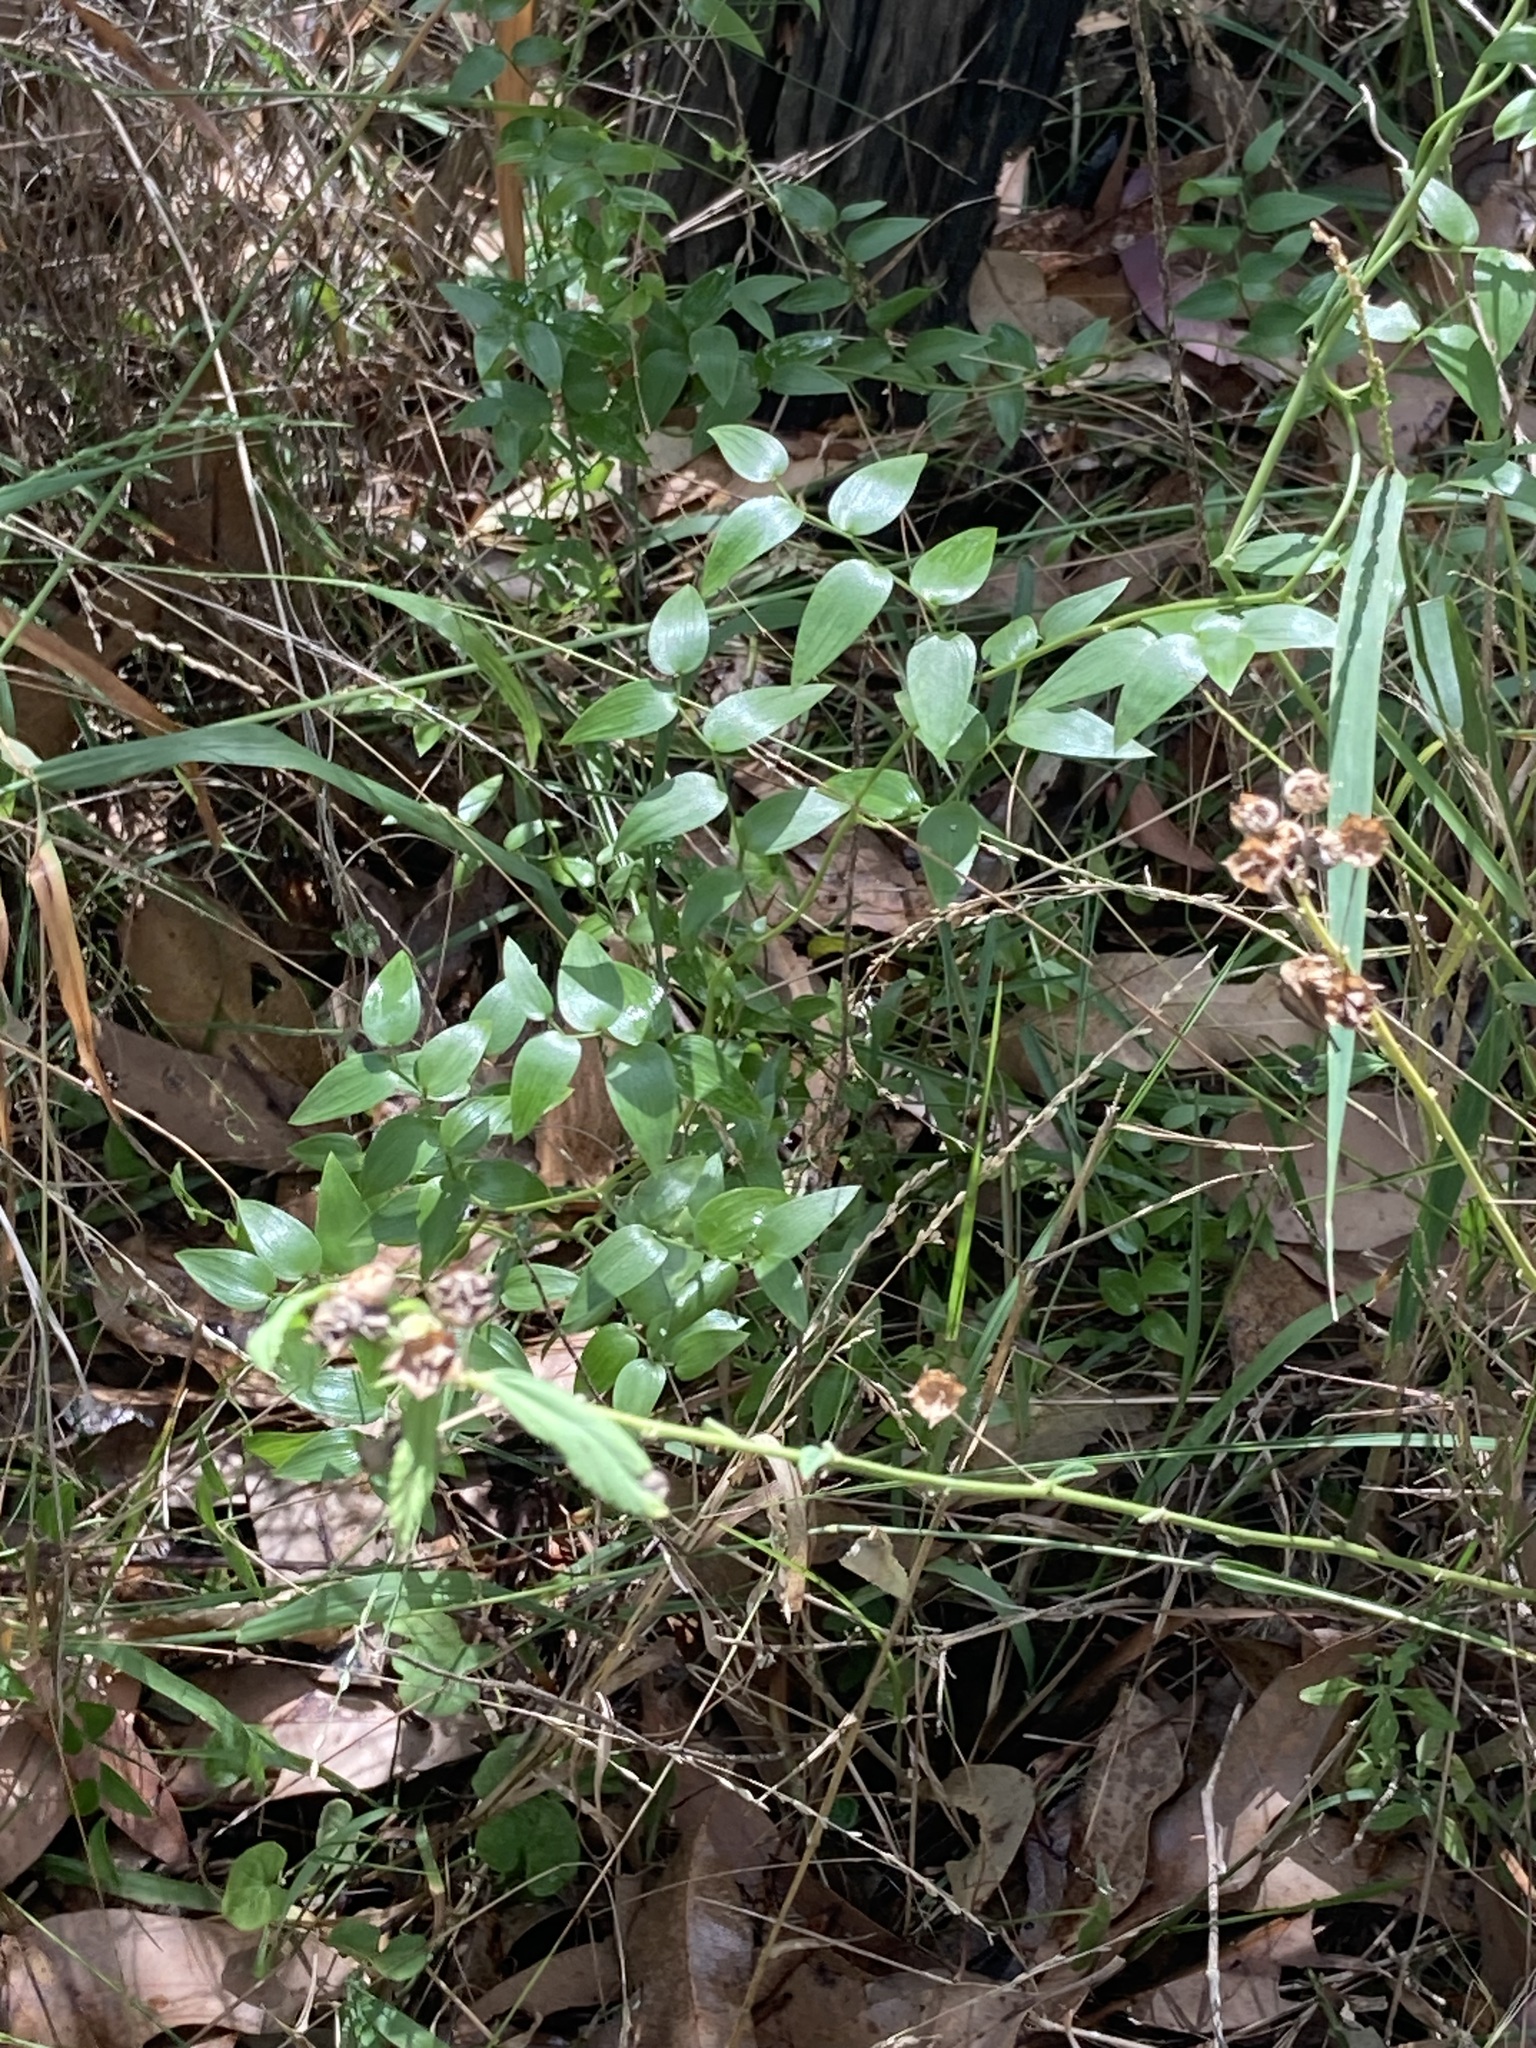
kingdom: Plantae
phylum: Tracheophyta
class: Liliopsida
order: Asparagales
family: Asparagaceae
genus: Asparagus
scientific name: Asparagus asparagoides
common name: African asparagus fern
